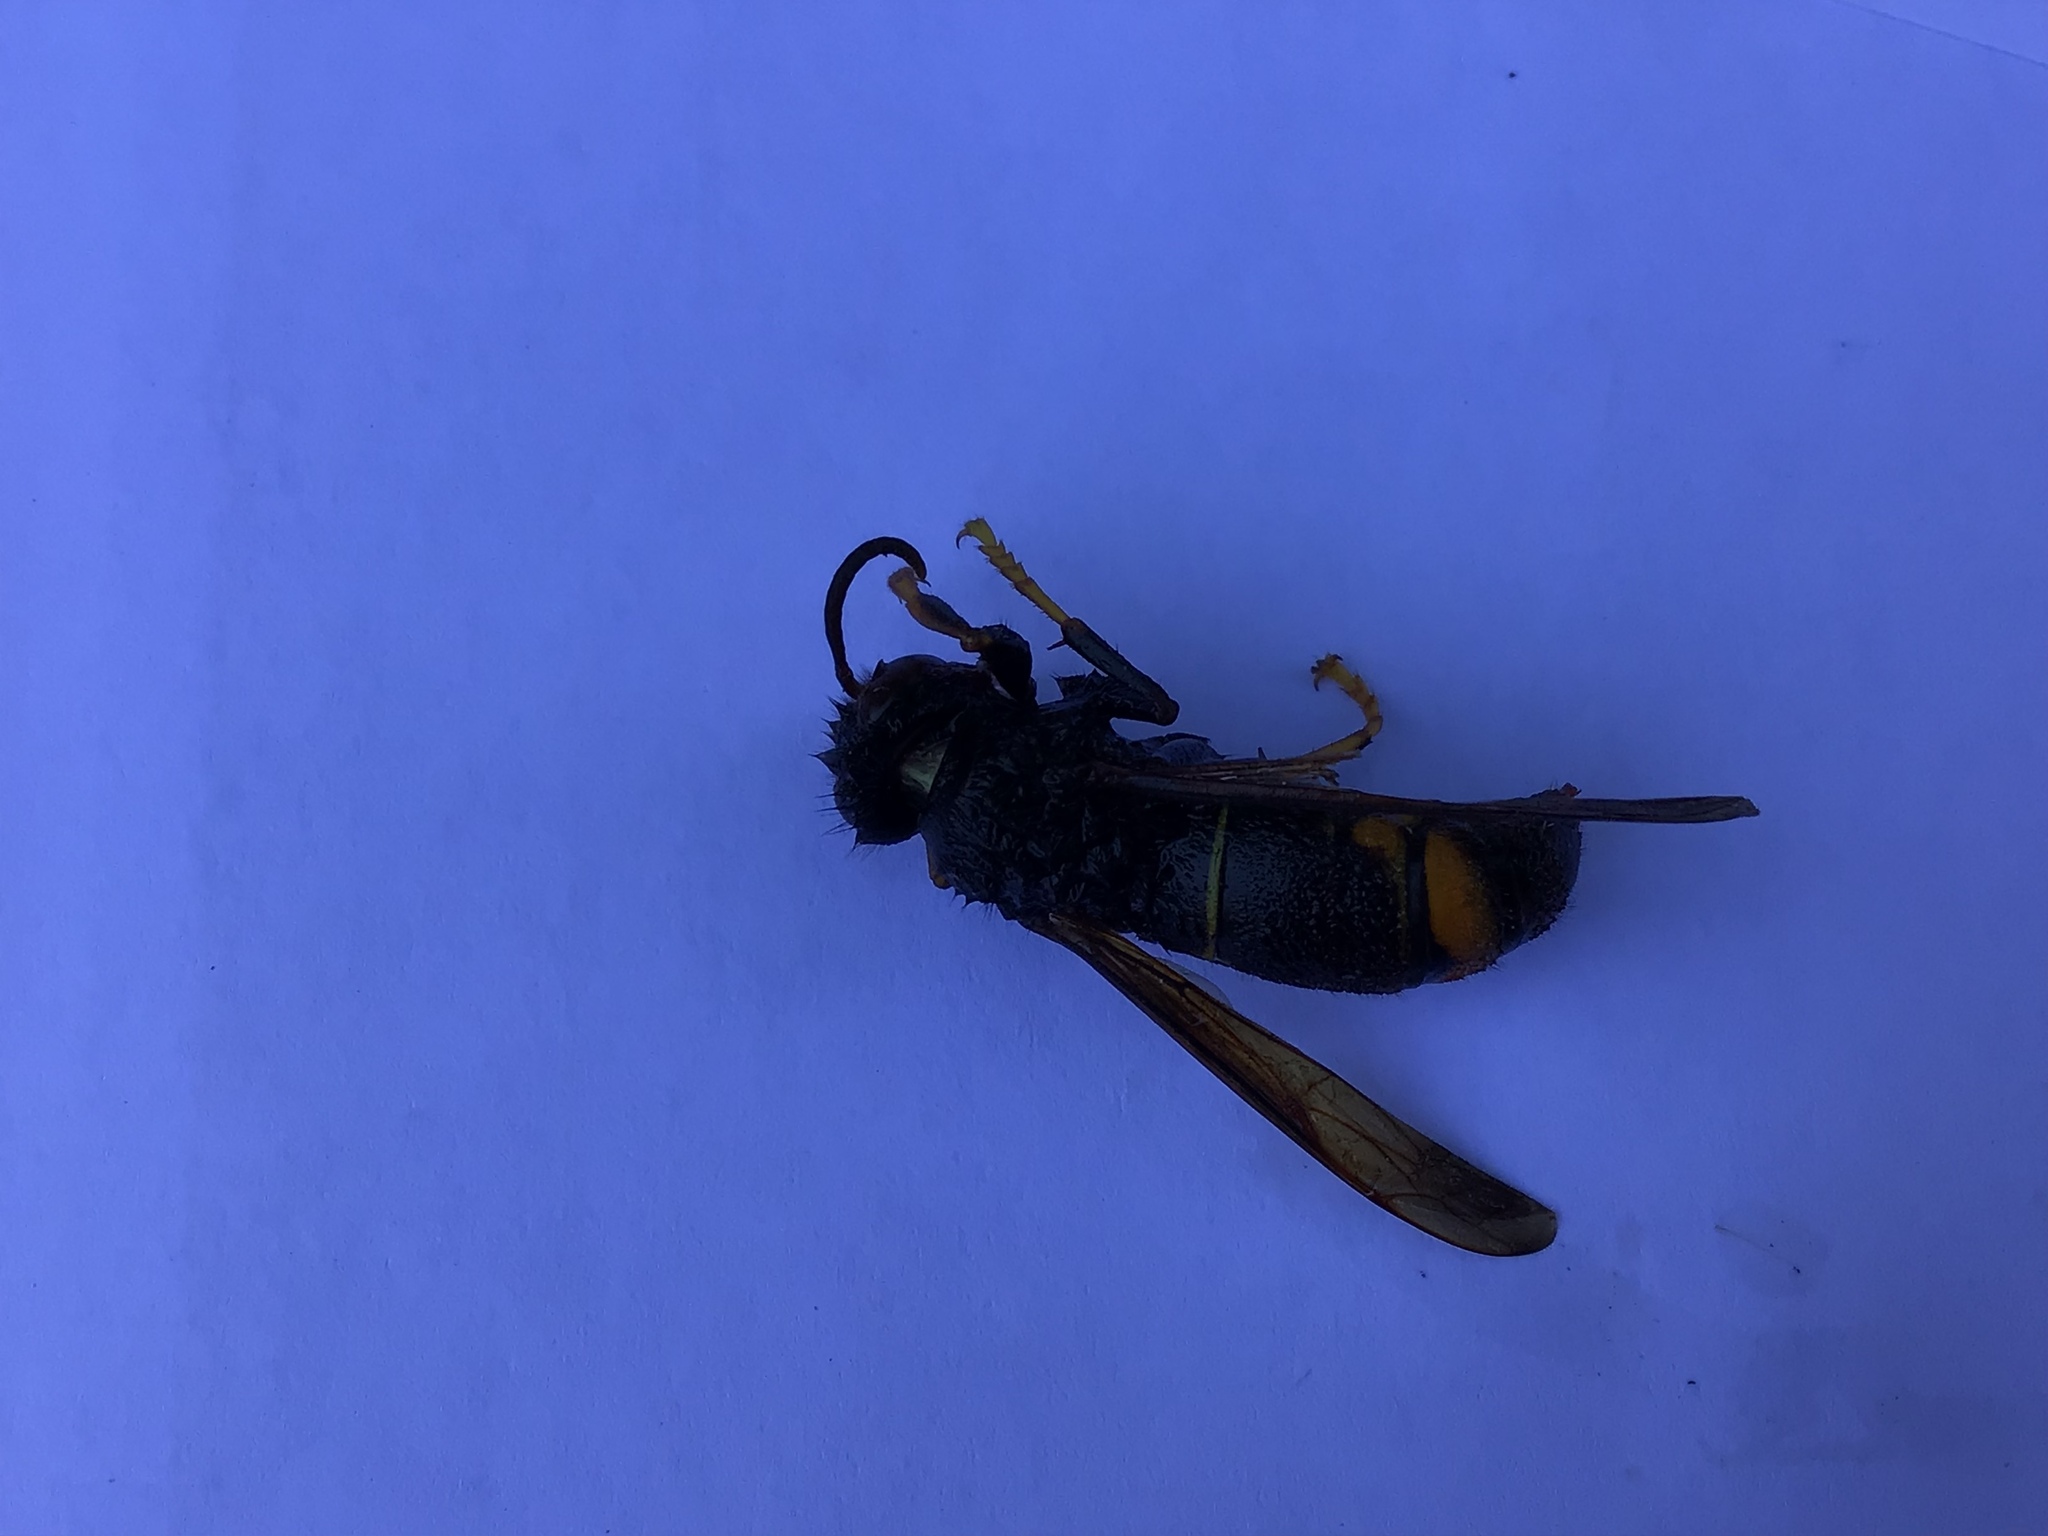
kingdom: Animalia
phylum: Arthropoda
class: Insecta
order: Hymenoptera
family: Vespidae
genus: Vespa
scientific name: Vespa velutina
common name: Asian hornet
